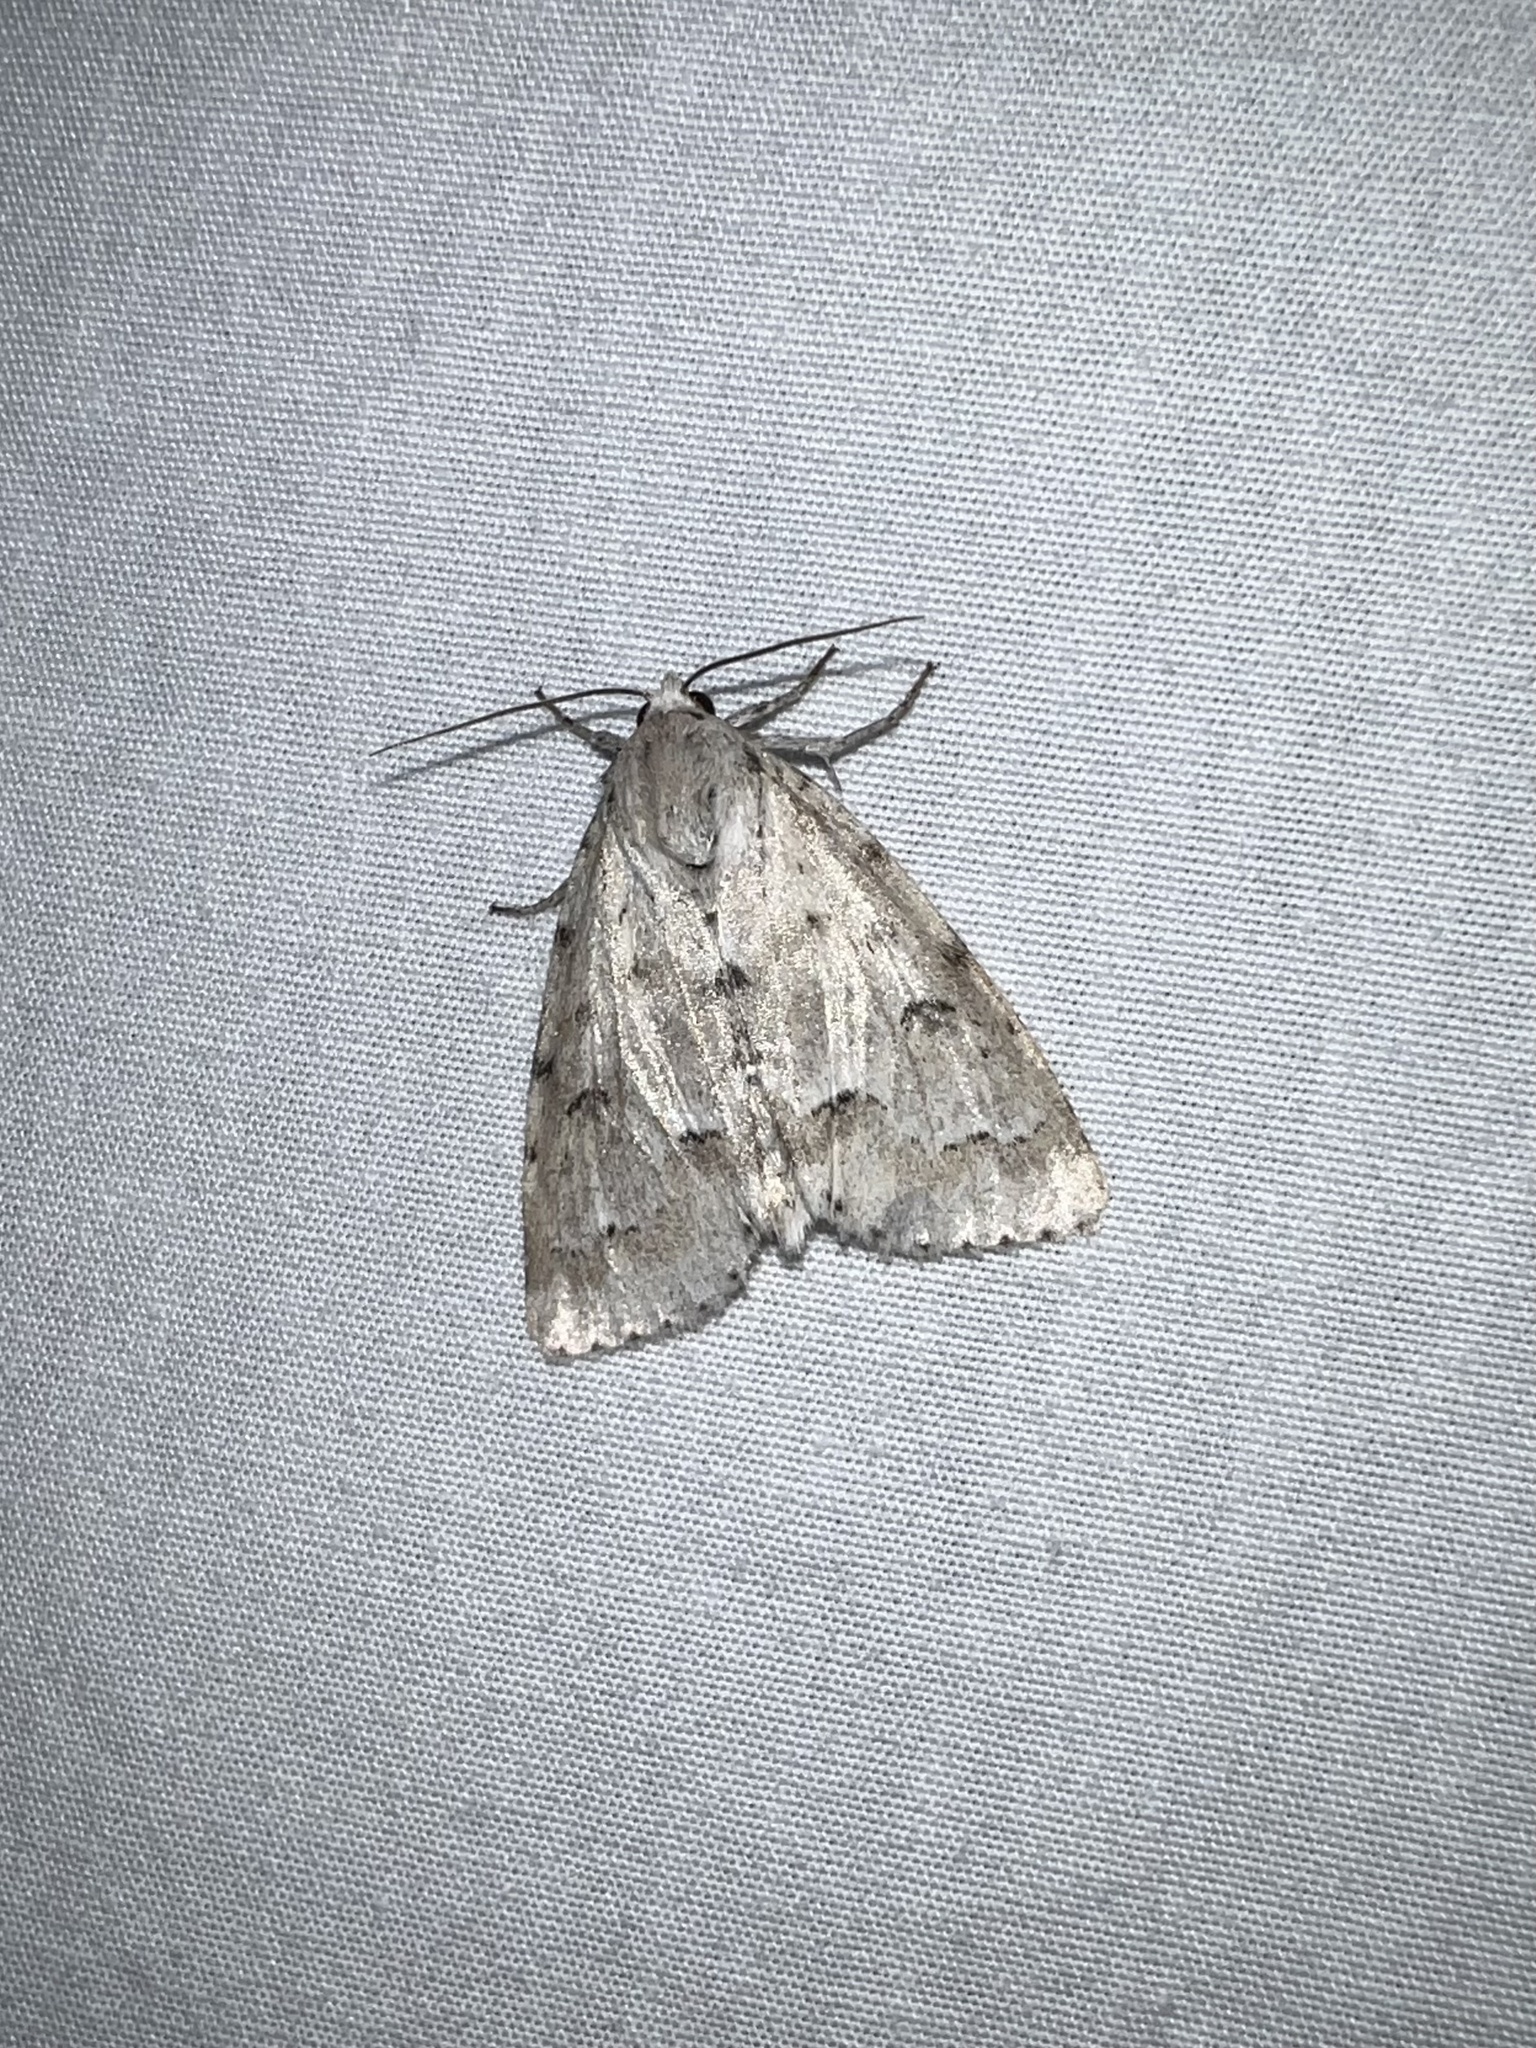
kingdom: Animalia
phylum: Arthropoda
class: Insecta
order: Lepidoptera
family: Noctuidae
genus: Acronicta
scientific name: Acronicta innotata
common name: Unmarked dagger
